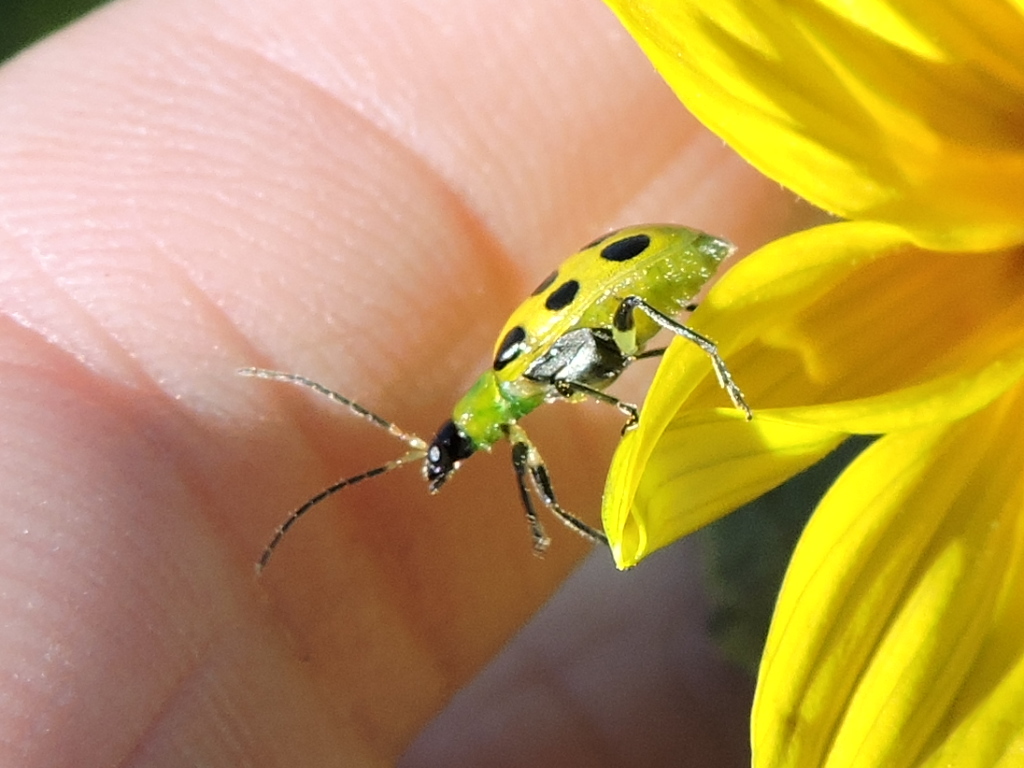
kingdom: Animalia
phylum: Arthropoda
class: Insecta
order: Coleoptera
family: Chrysomelidae
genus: Diabrotica
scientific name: Diabrotica undecimpunctata
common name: Spotted cucumber beetle
